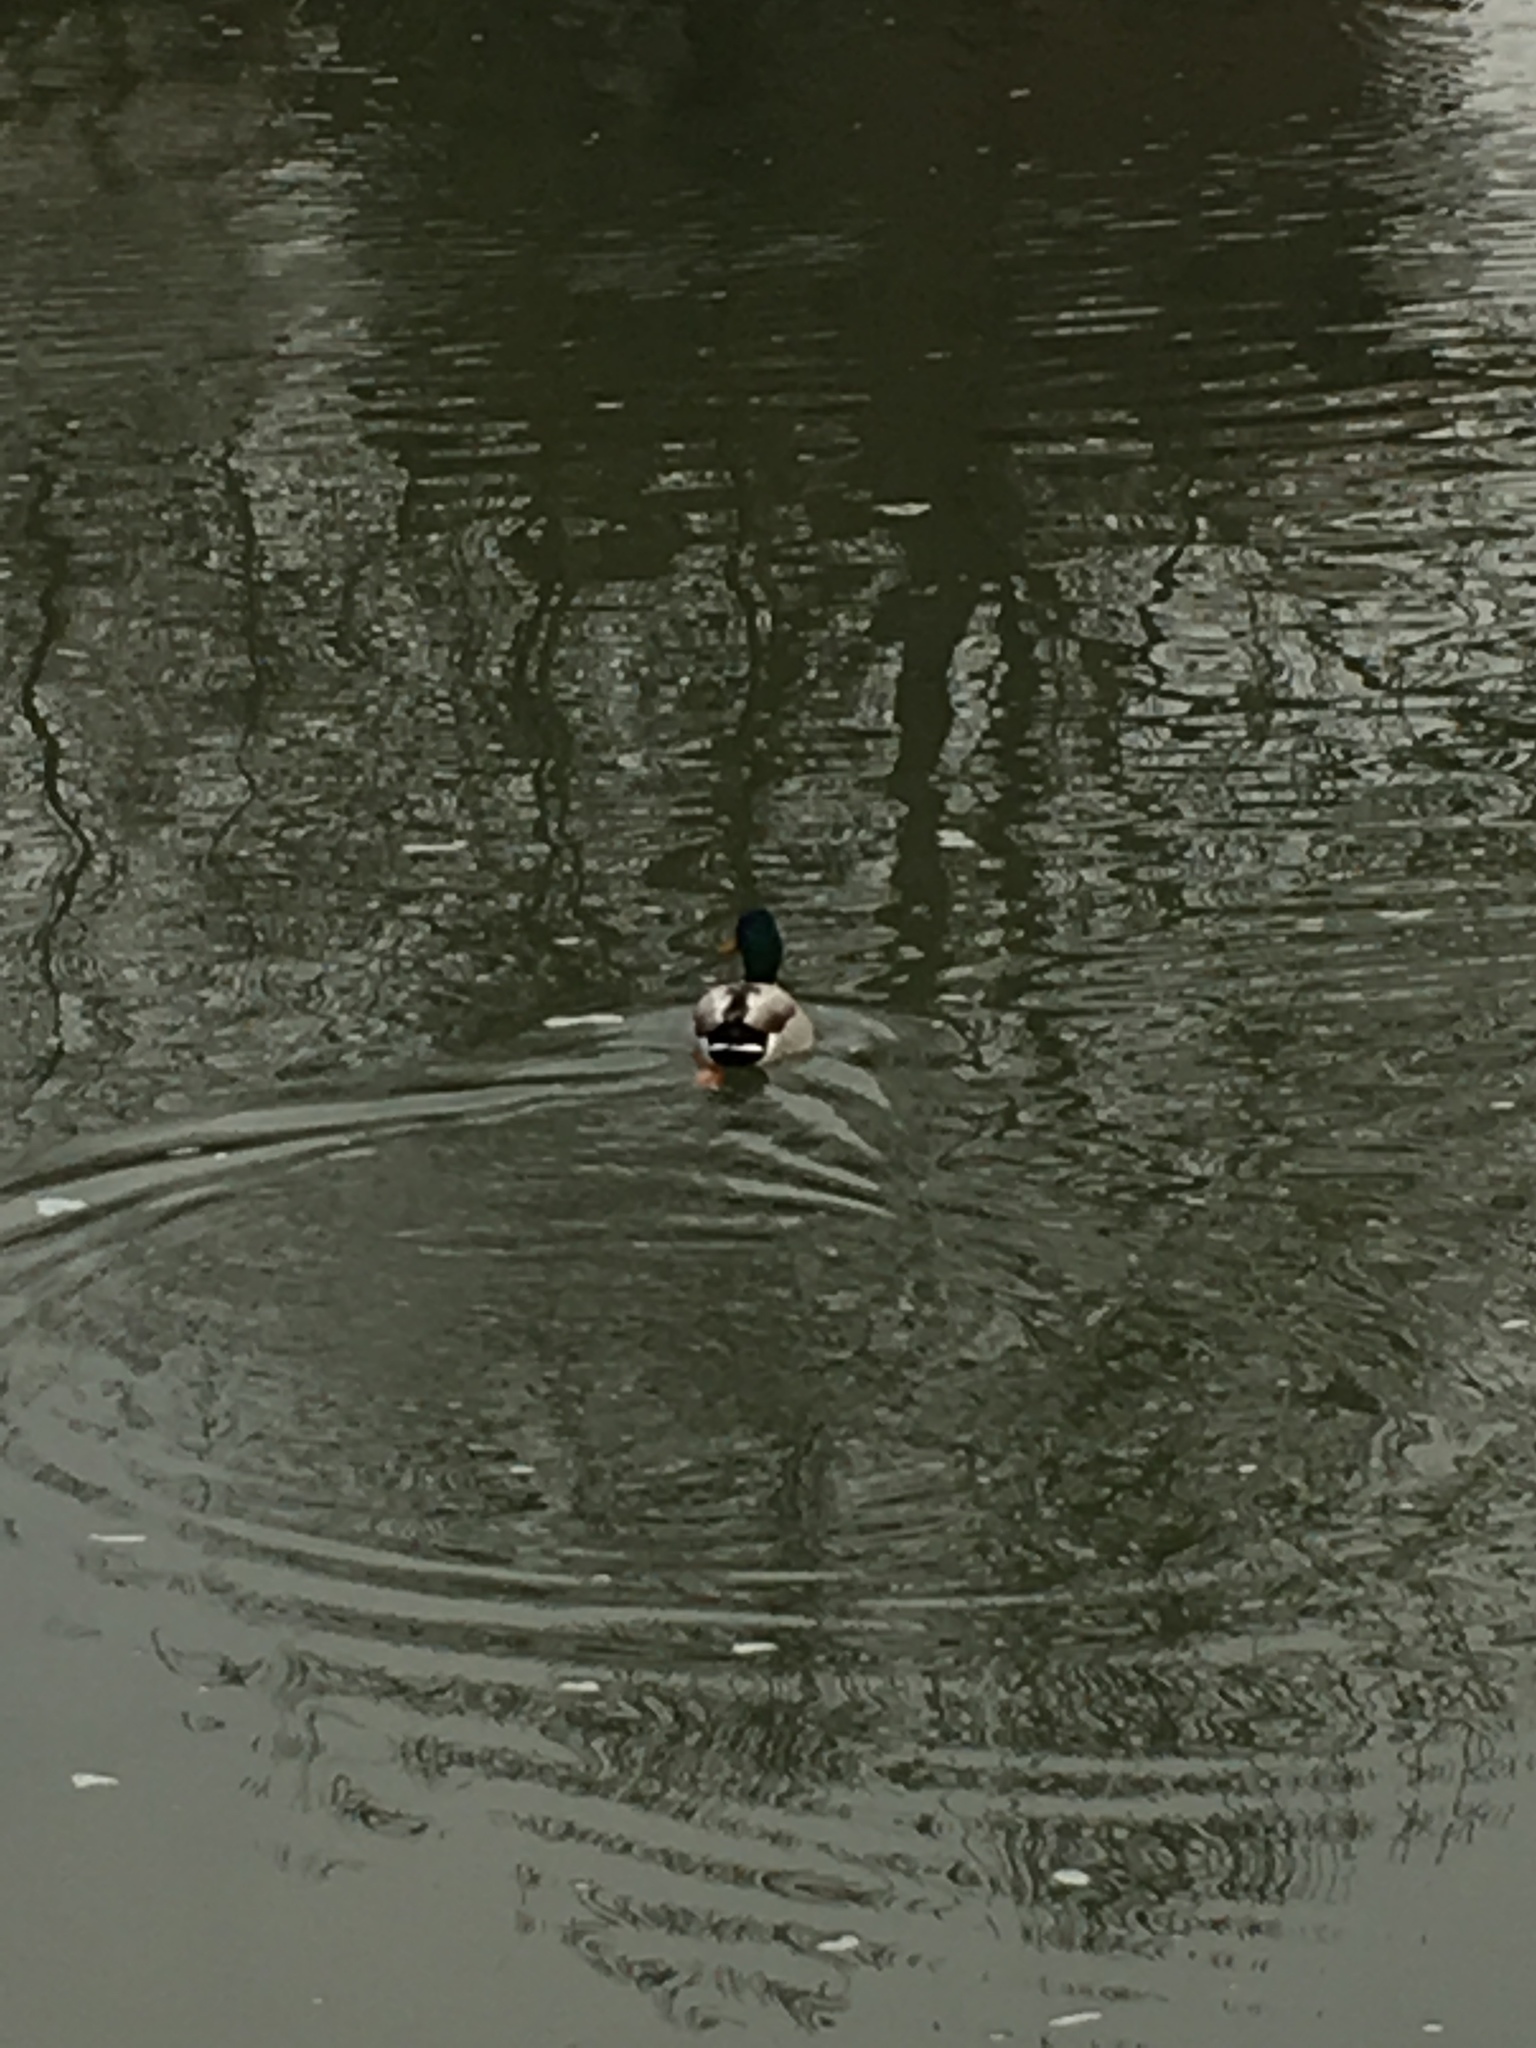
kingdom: Animalia
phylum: Chordata
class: Aves
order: Anseriformes
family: Anatidae
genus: Anas
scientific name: Anas platyrhynchos
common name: Mallard
